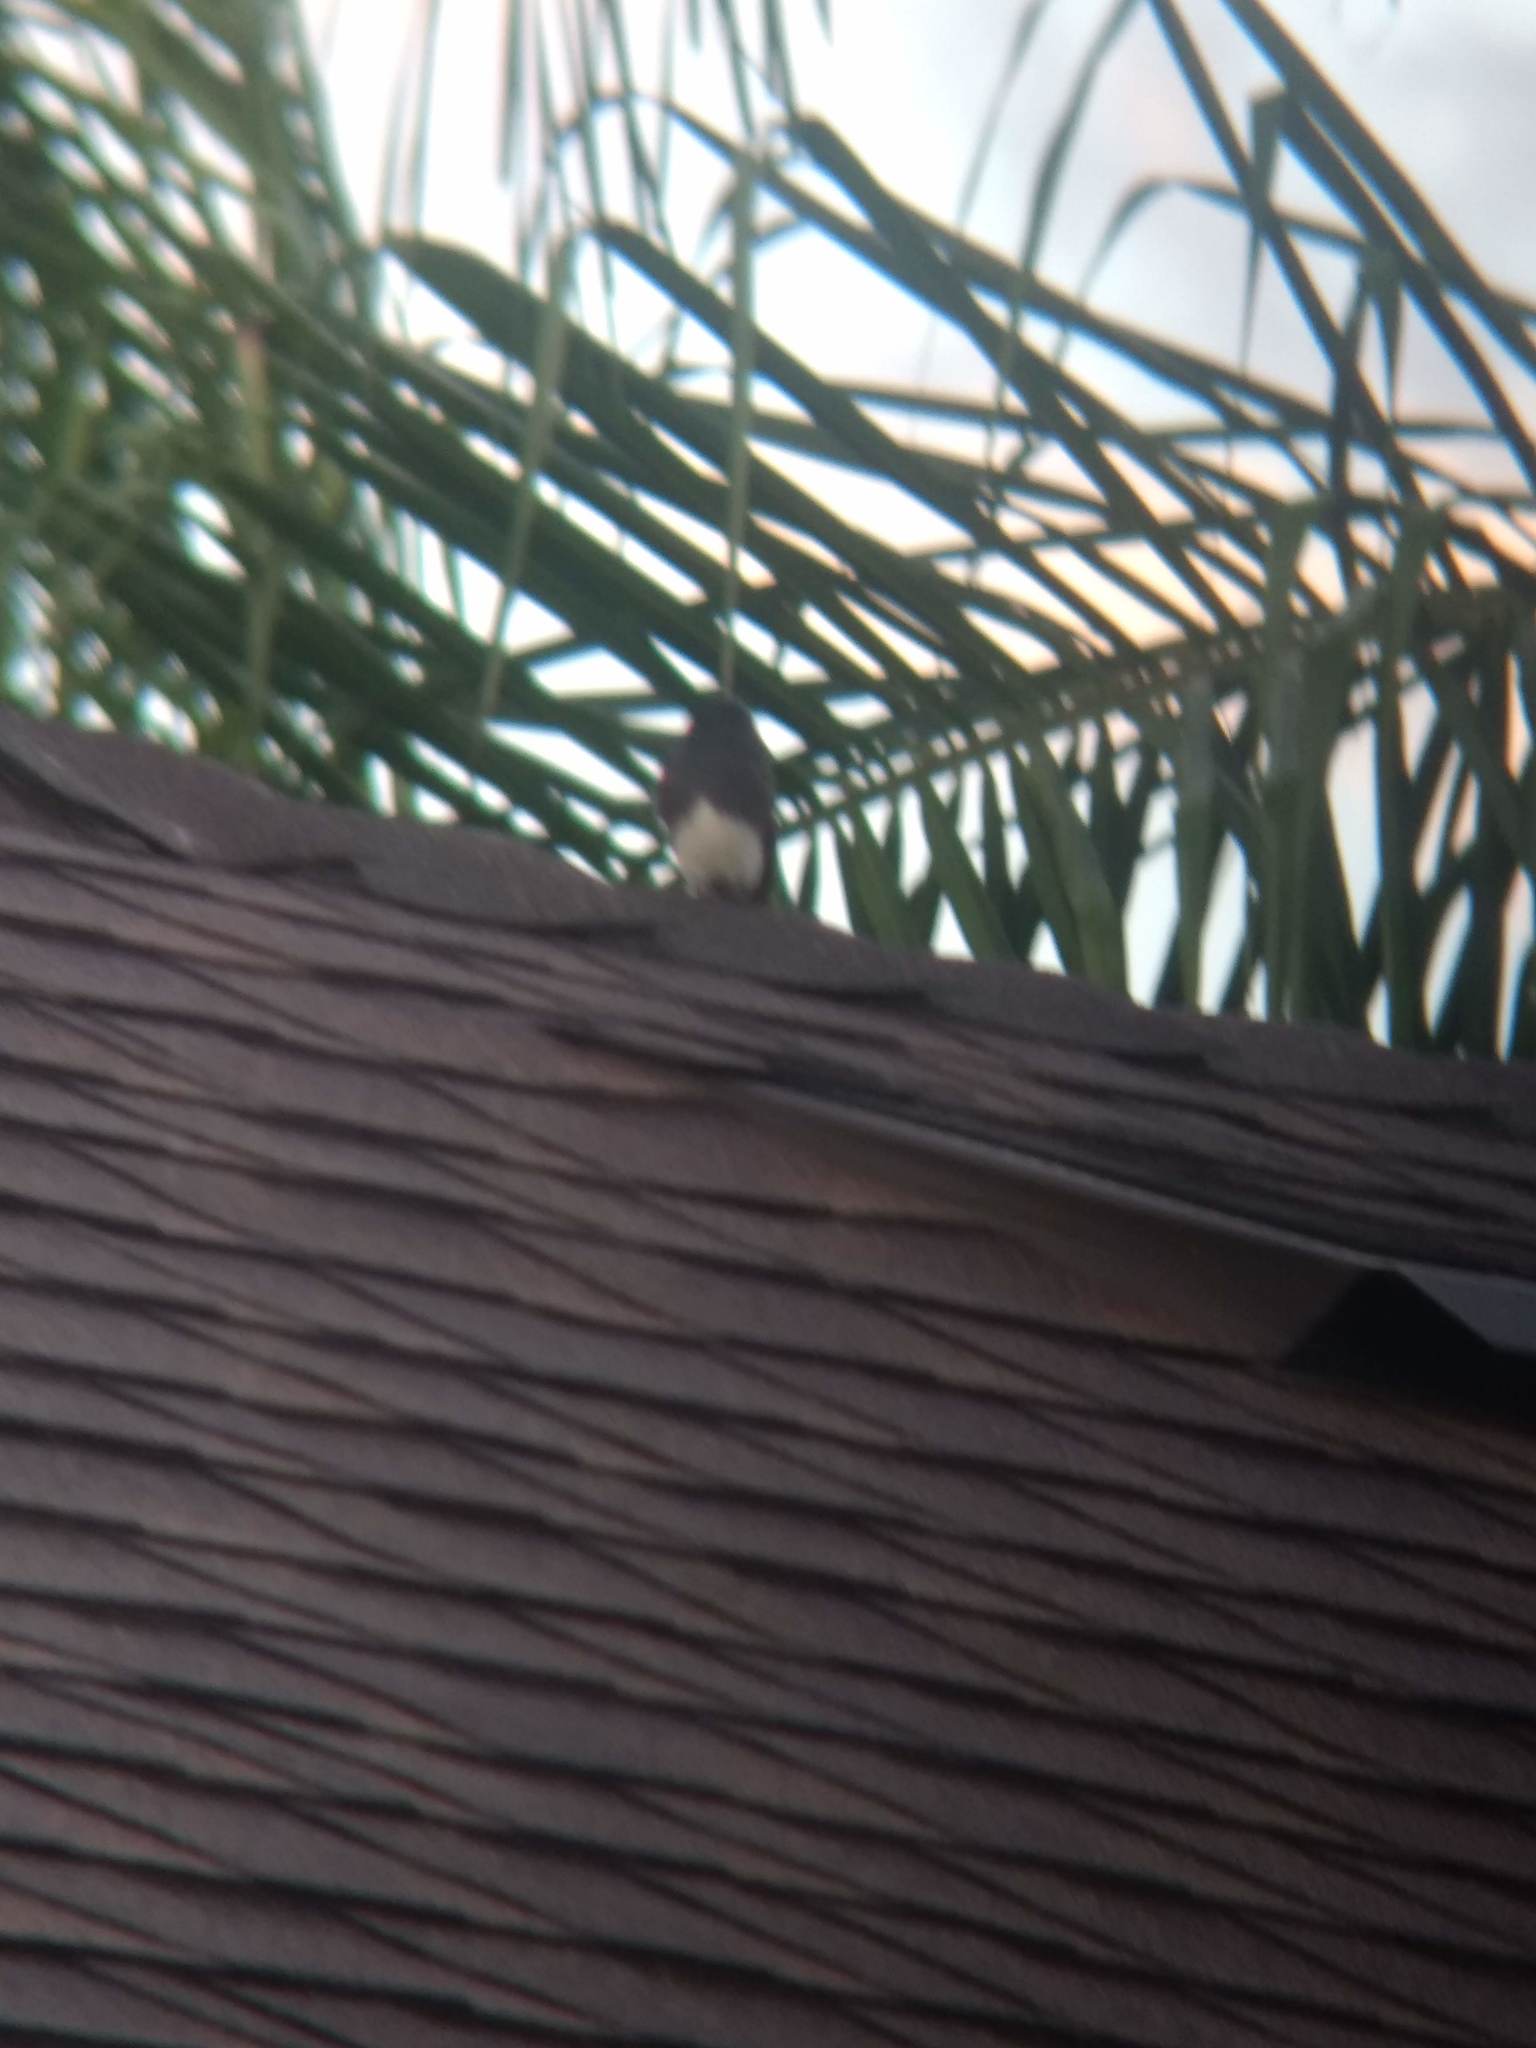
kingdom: Animalia
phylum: Chordata
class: Aves
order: Passeriformes
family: Tyrannidae
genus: Sayornis
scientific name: Sayornis nigricans
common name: Black phoebe
